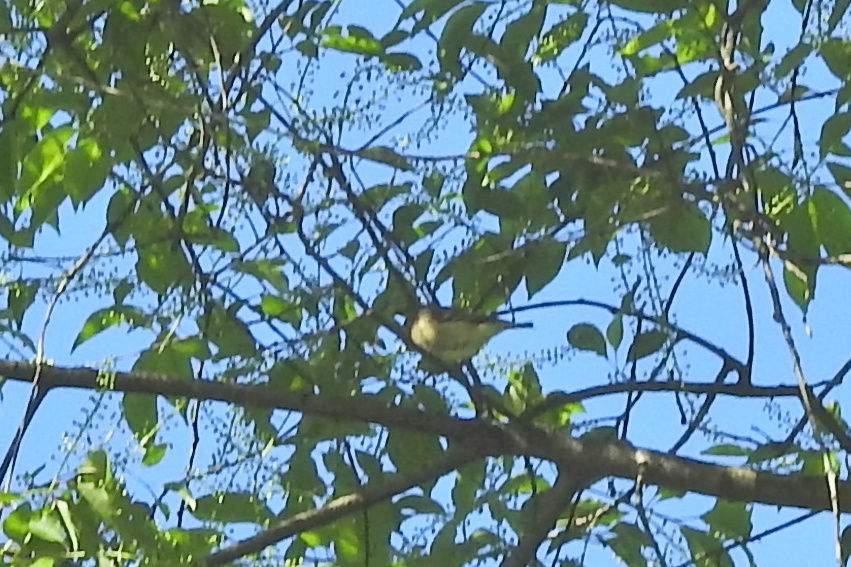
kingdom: Animalia
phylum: Chordata
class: Aves
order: Passeriformes
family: Regulidae
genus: Regulus
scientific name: Regulus calendula
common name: Ruby-crowned kinglet
